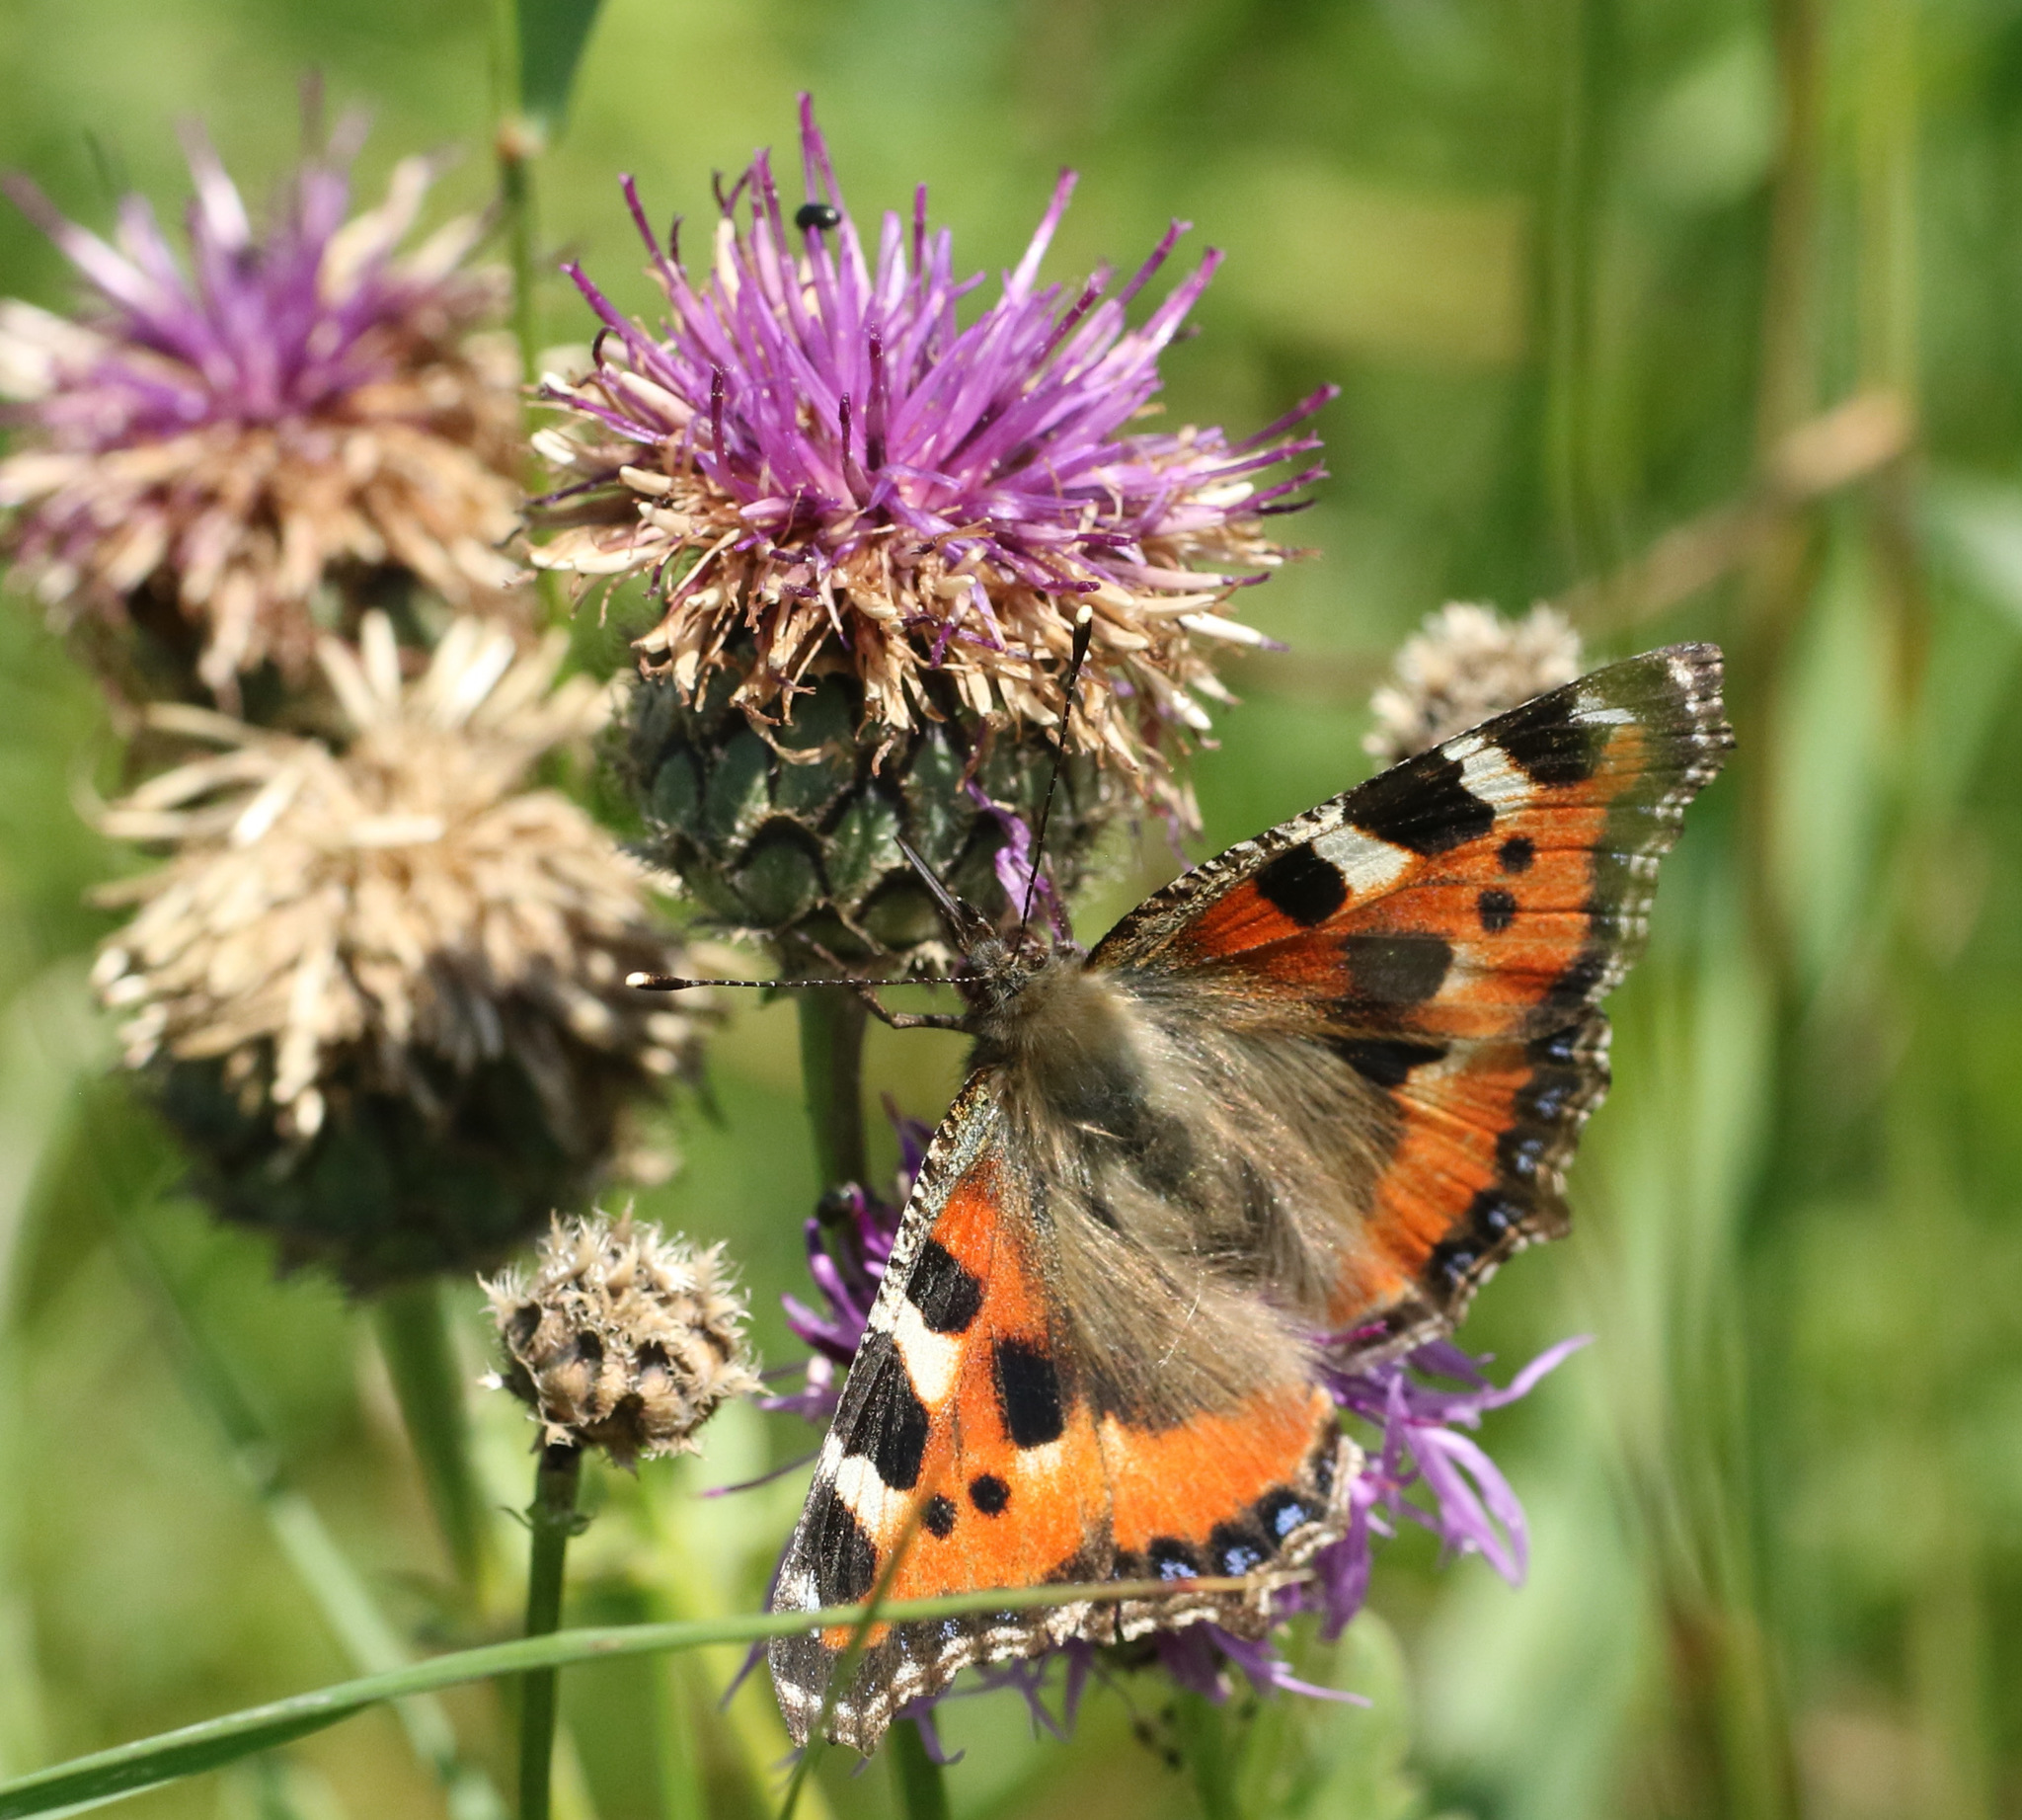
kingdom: Animalia
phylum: Arthropoda
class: Insecta
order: Lepidoptera
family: Nymphalidae
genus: Aglais
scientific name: Aglais urticae
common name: Small tortoiseshell
